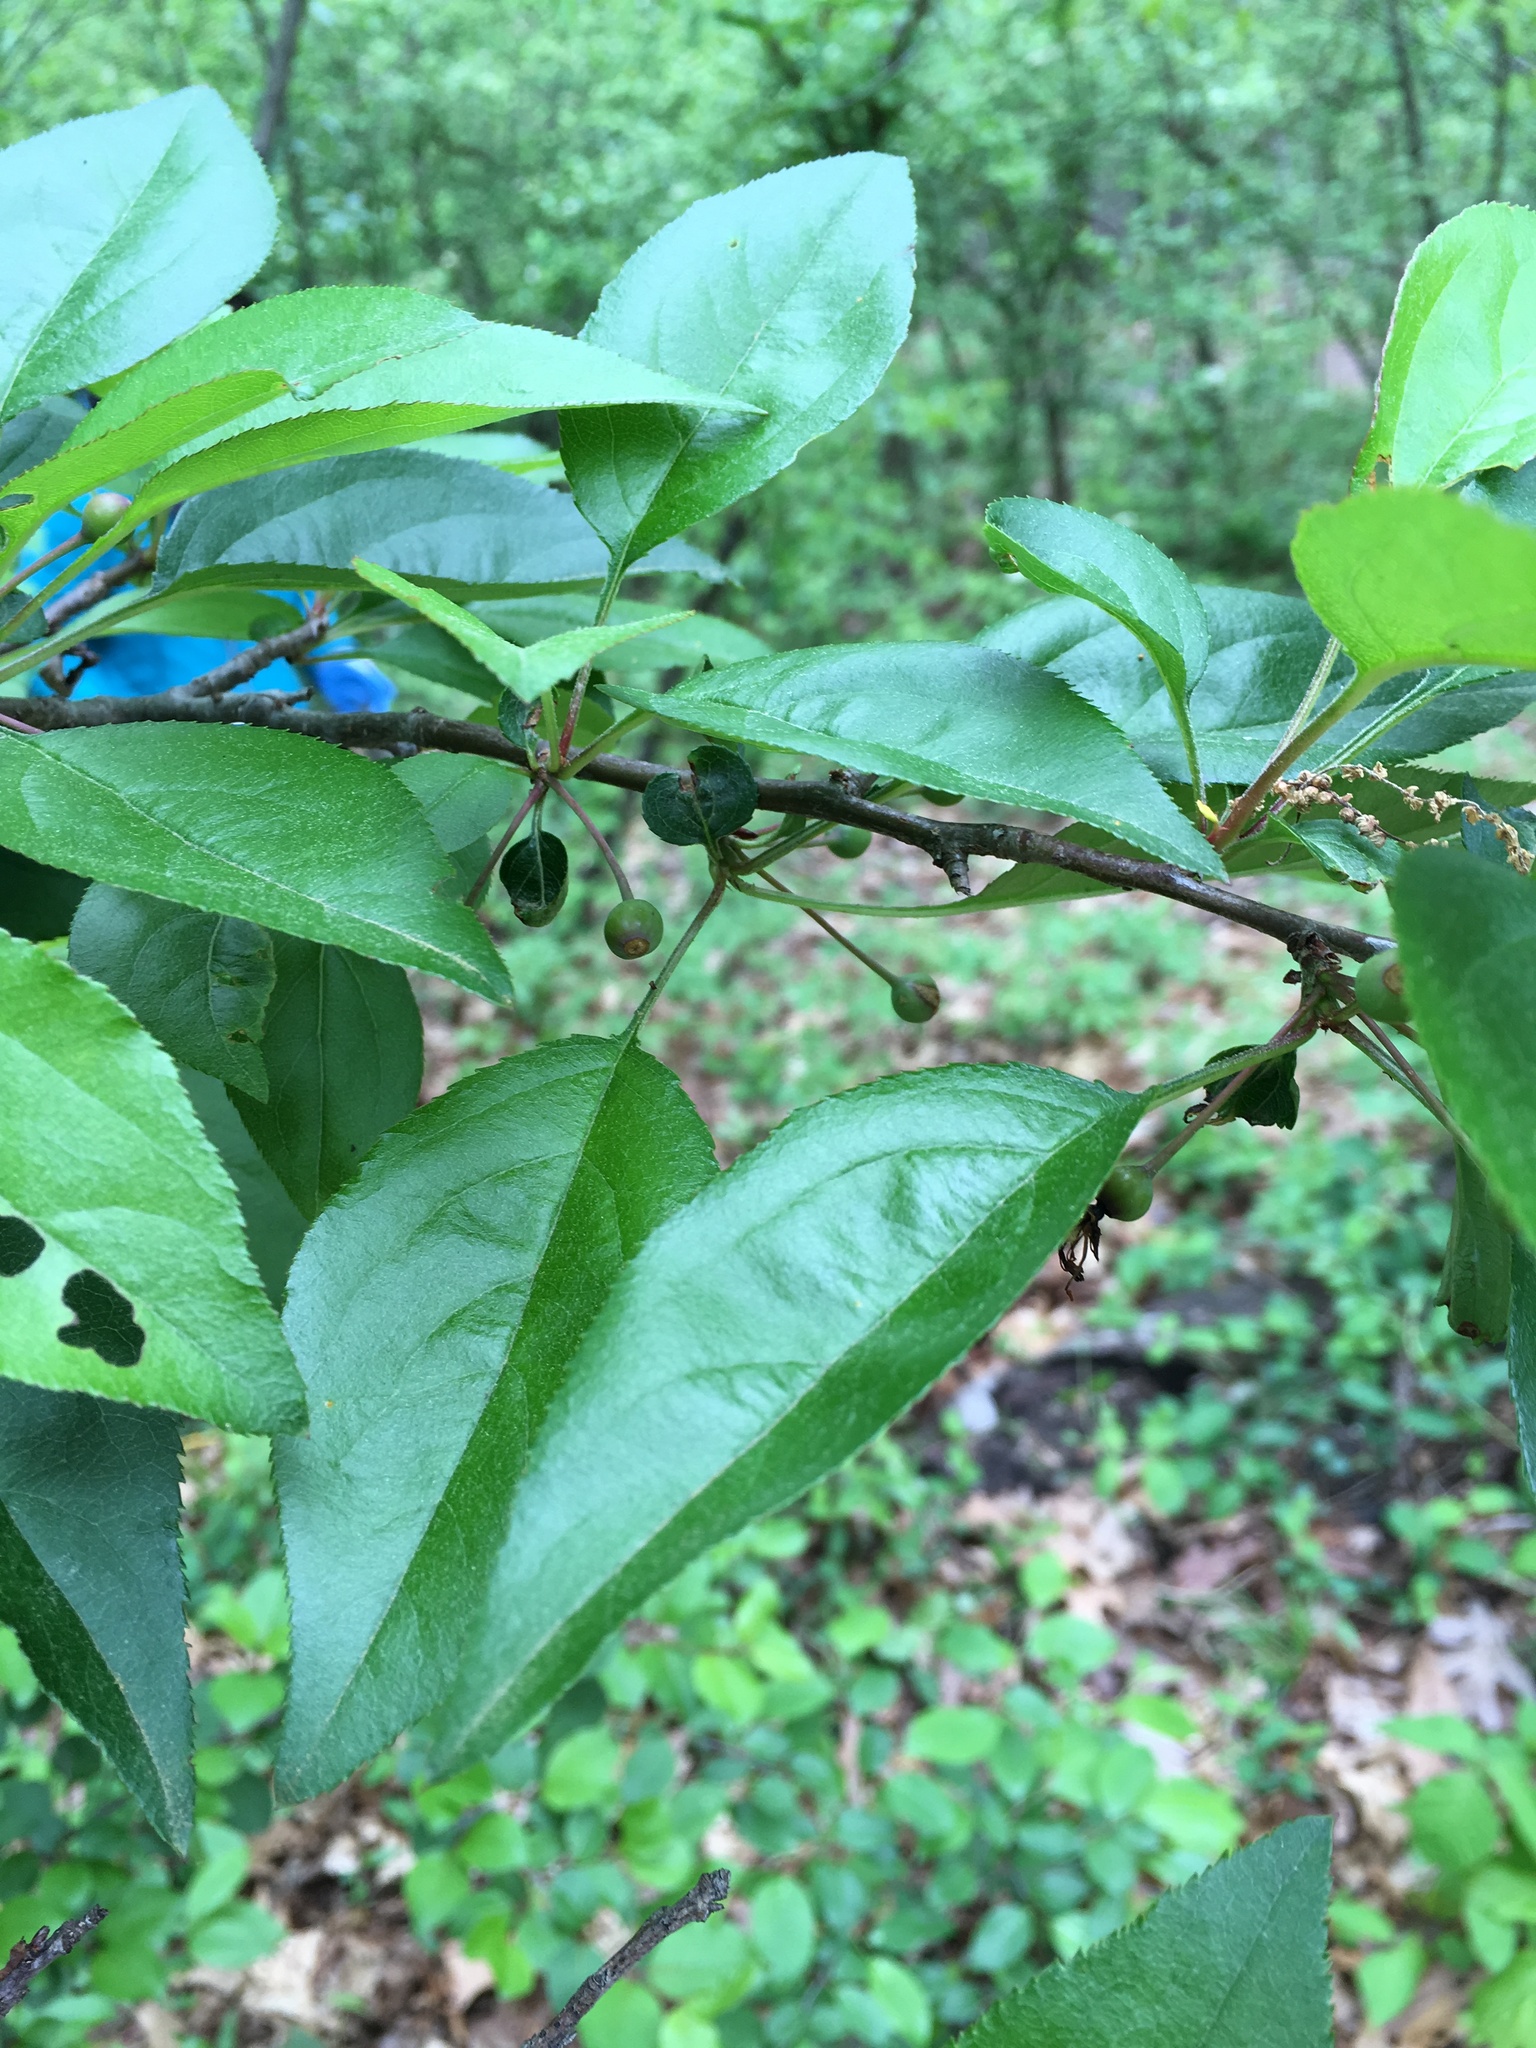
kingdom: Plantae
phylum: Tracheophyta
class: Magnoliopsida
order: Rosales
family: Rosaceae
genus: Malus
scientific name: Malus hupehensis
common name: Chinese crab apple
